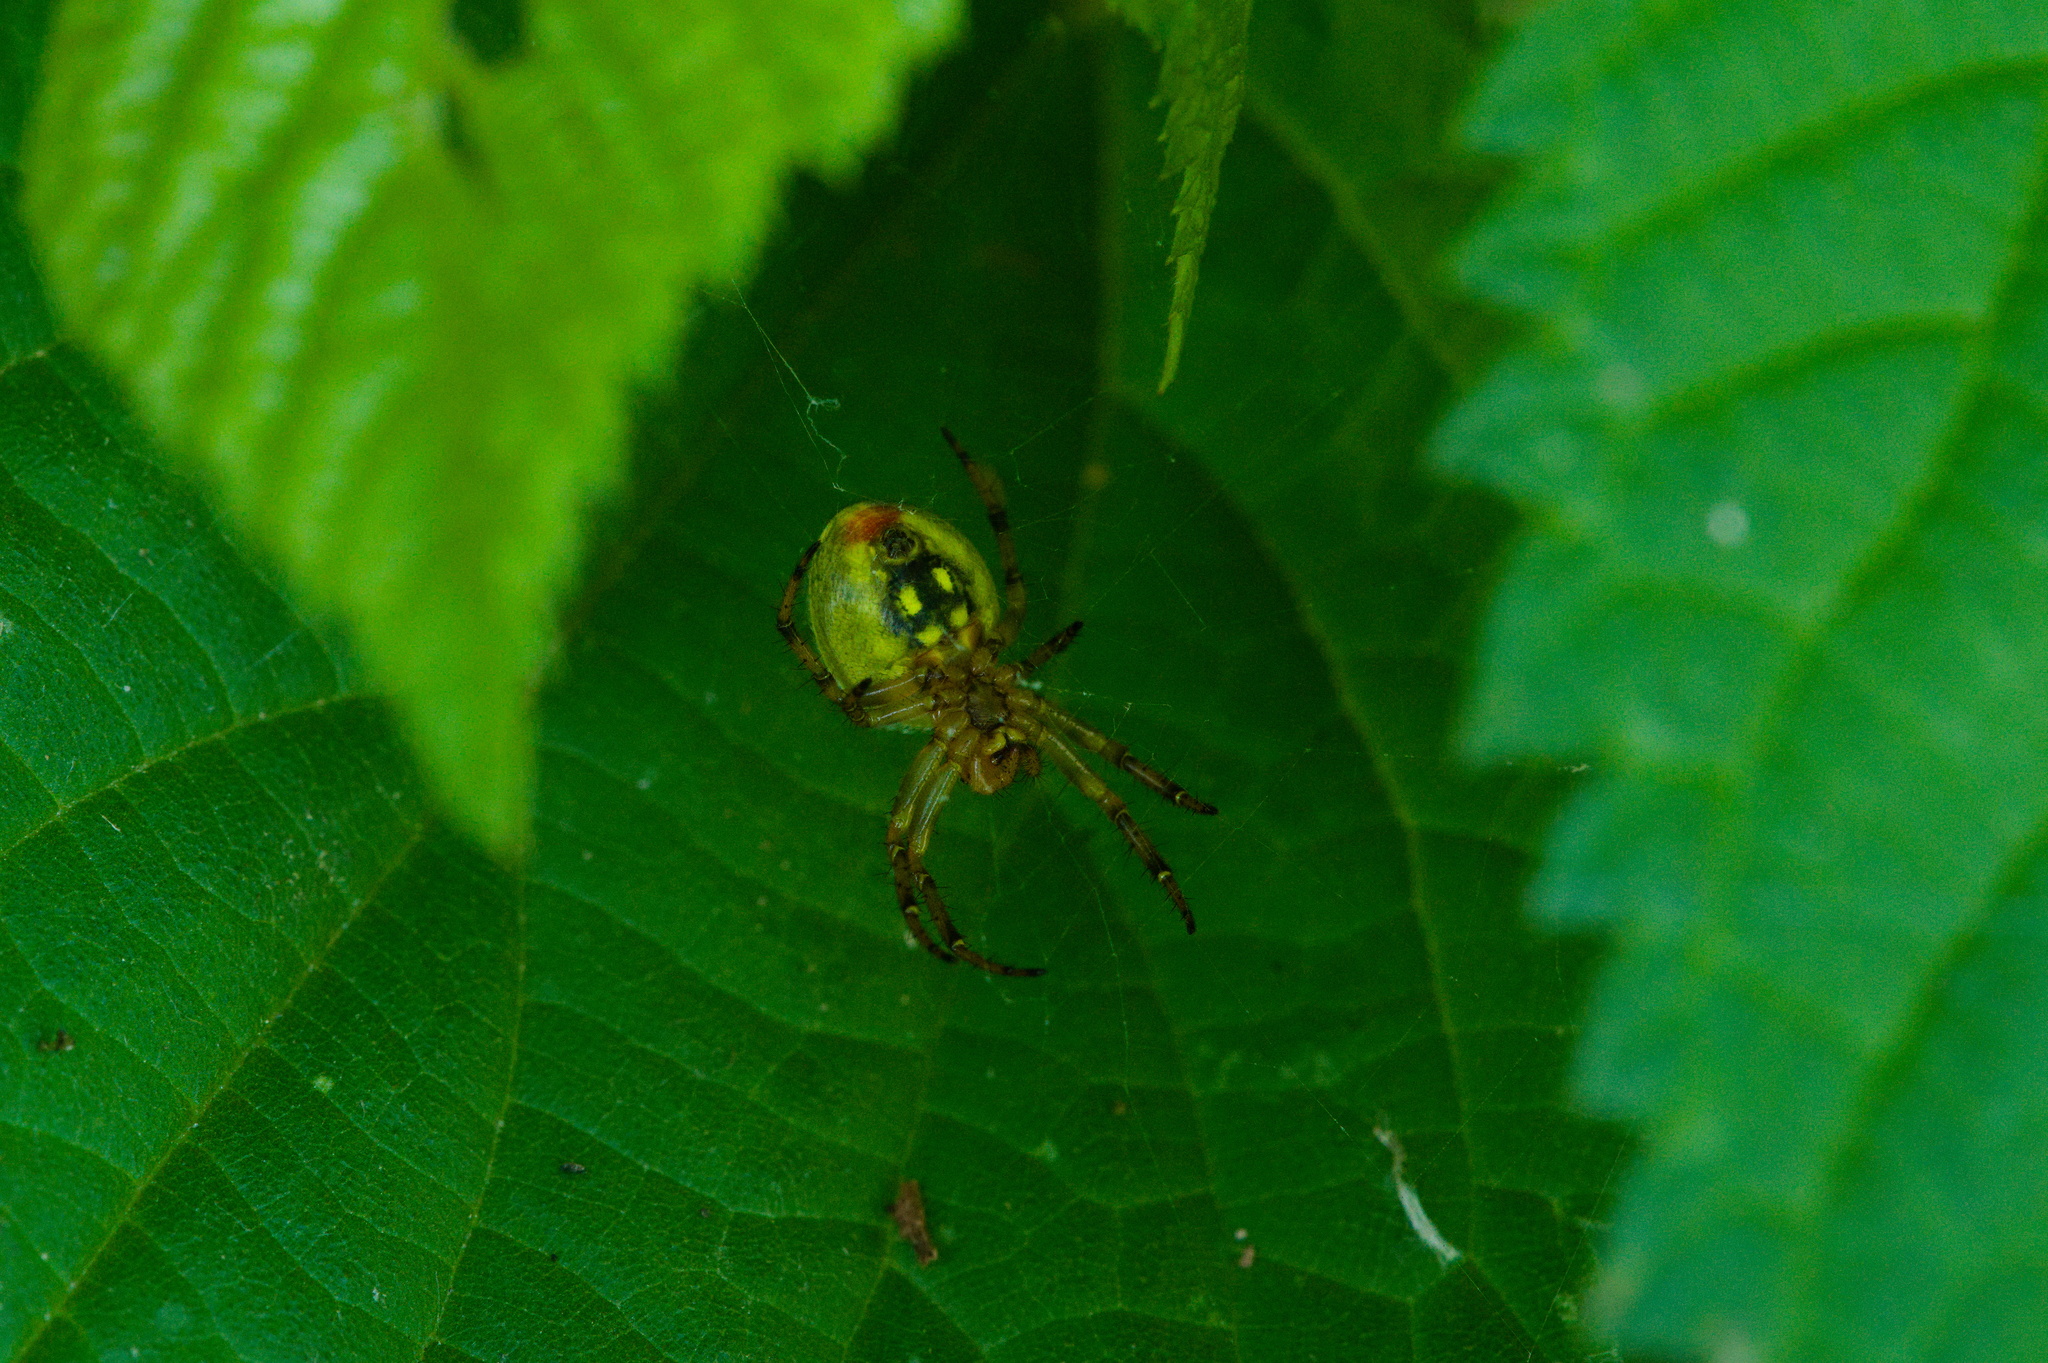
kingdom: Animalia
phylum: Arthropoda
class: Arachnida
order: Araneae
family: Araneidae
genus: Araniella
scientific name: Araniella alpica
